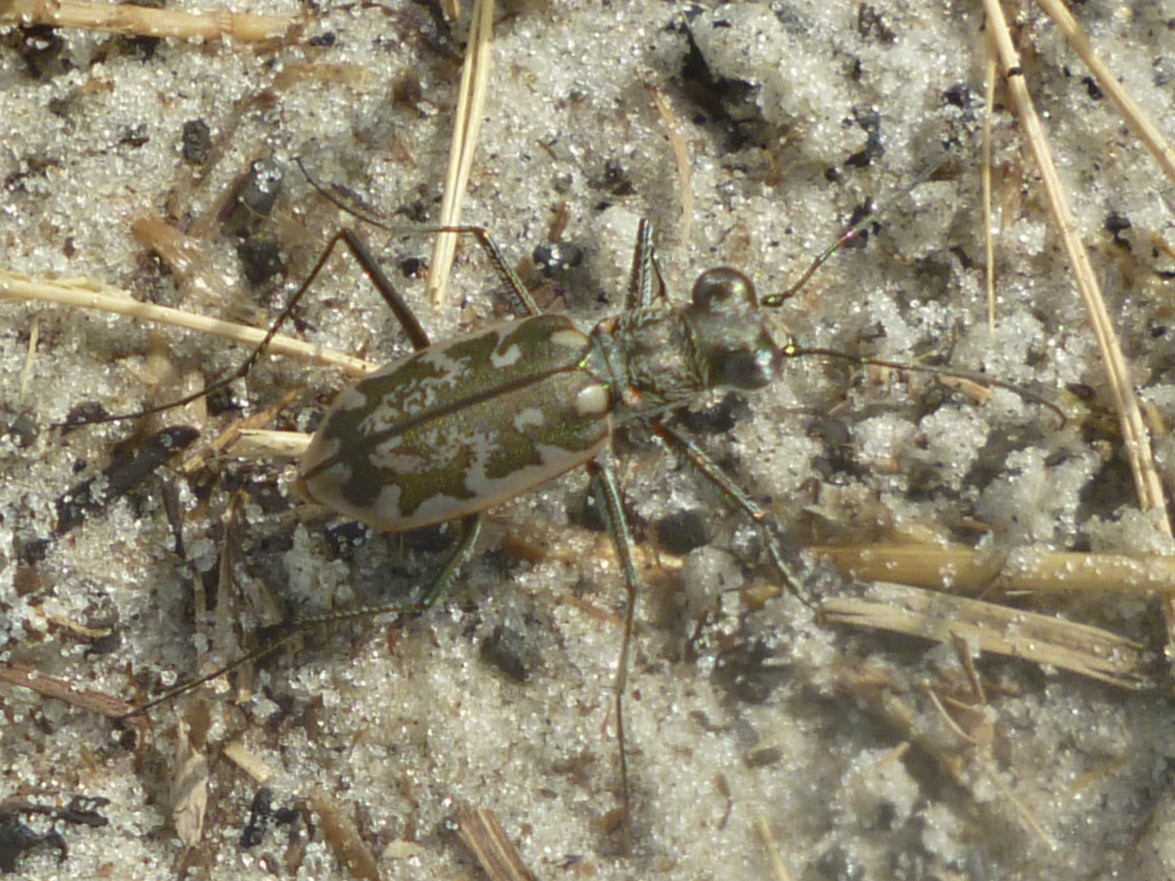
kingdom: Animalia
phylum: Arthropoda
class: Insecta
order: Coleoptera
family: Carabidae
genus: Ellipsoptera
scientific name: Ellipsoptera marginata
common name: Margined tiger beetle
